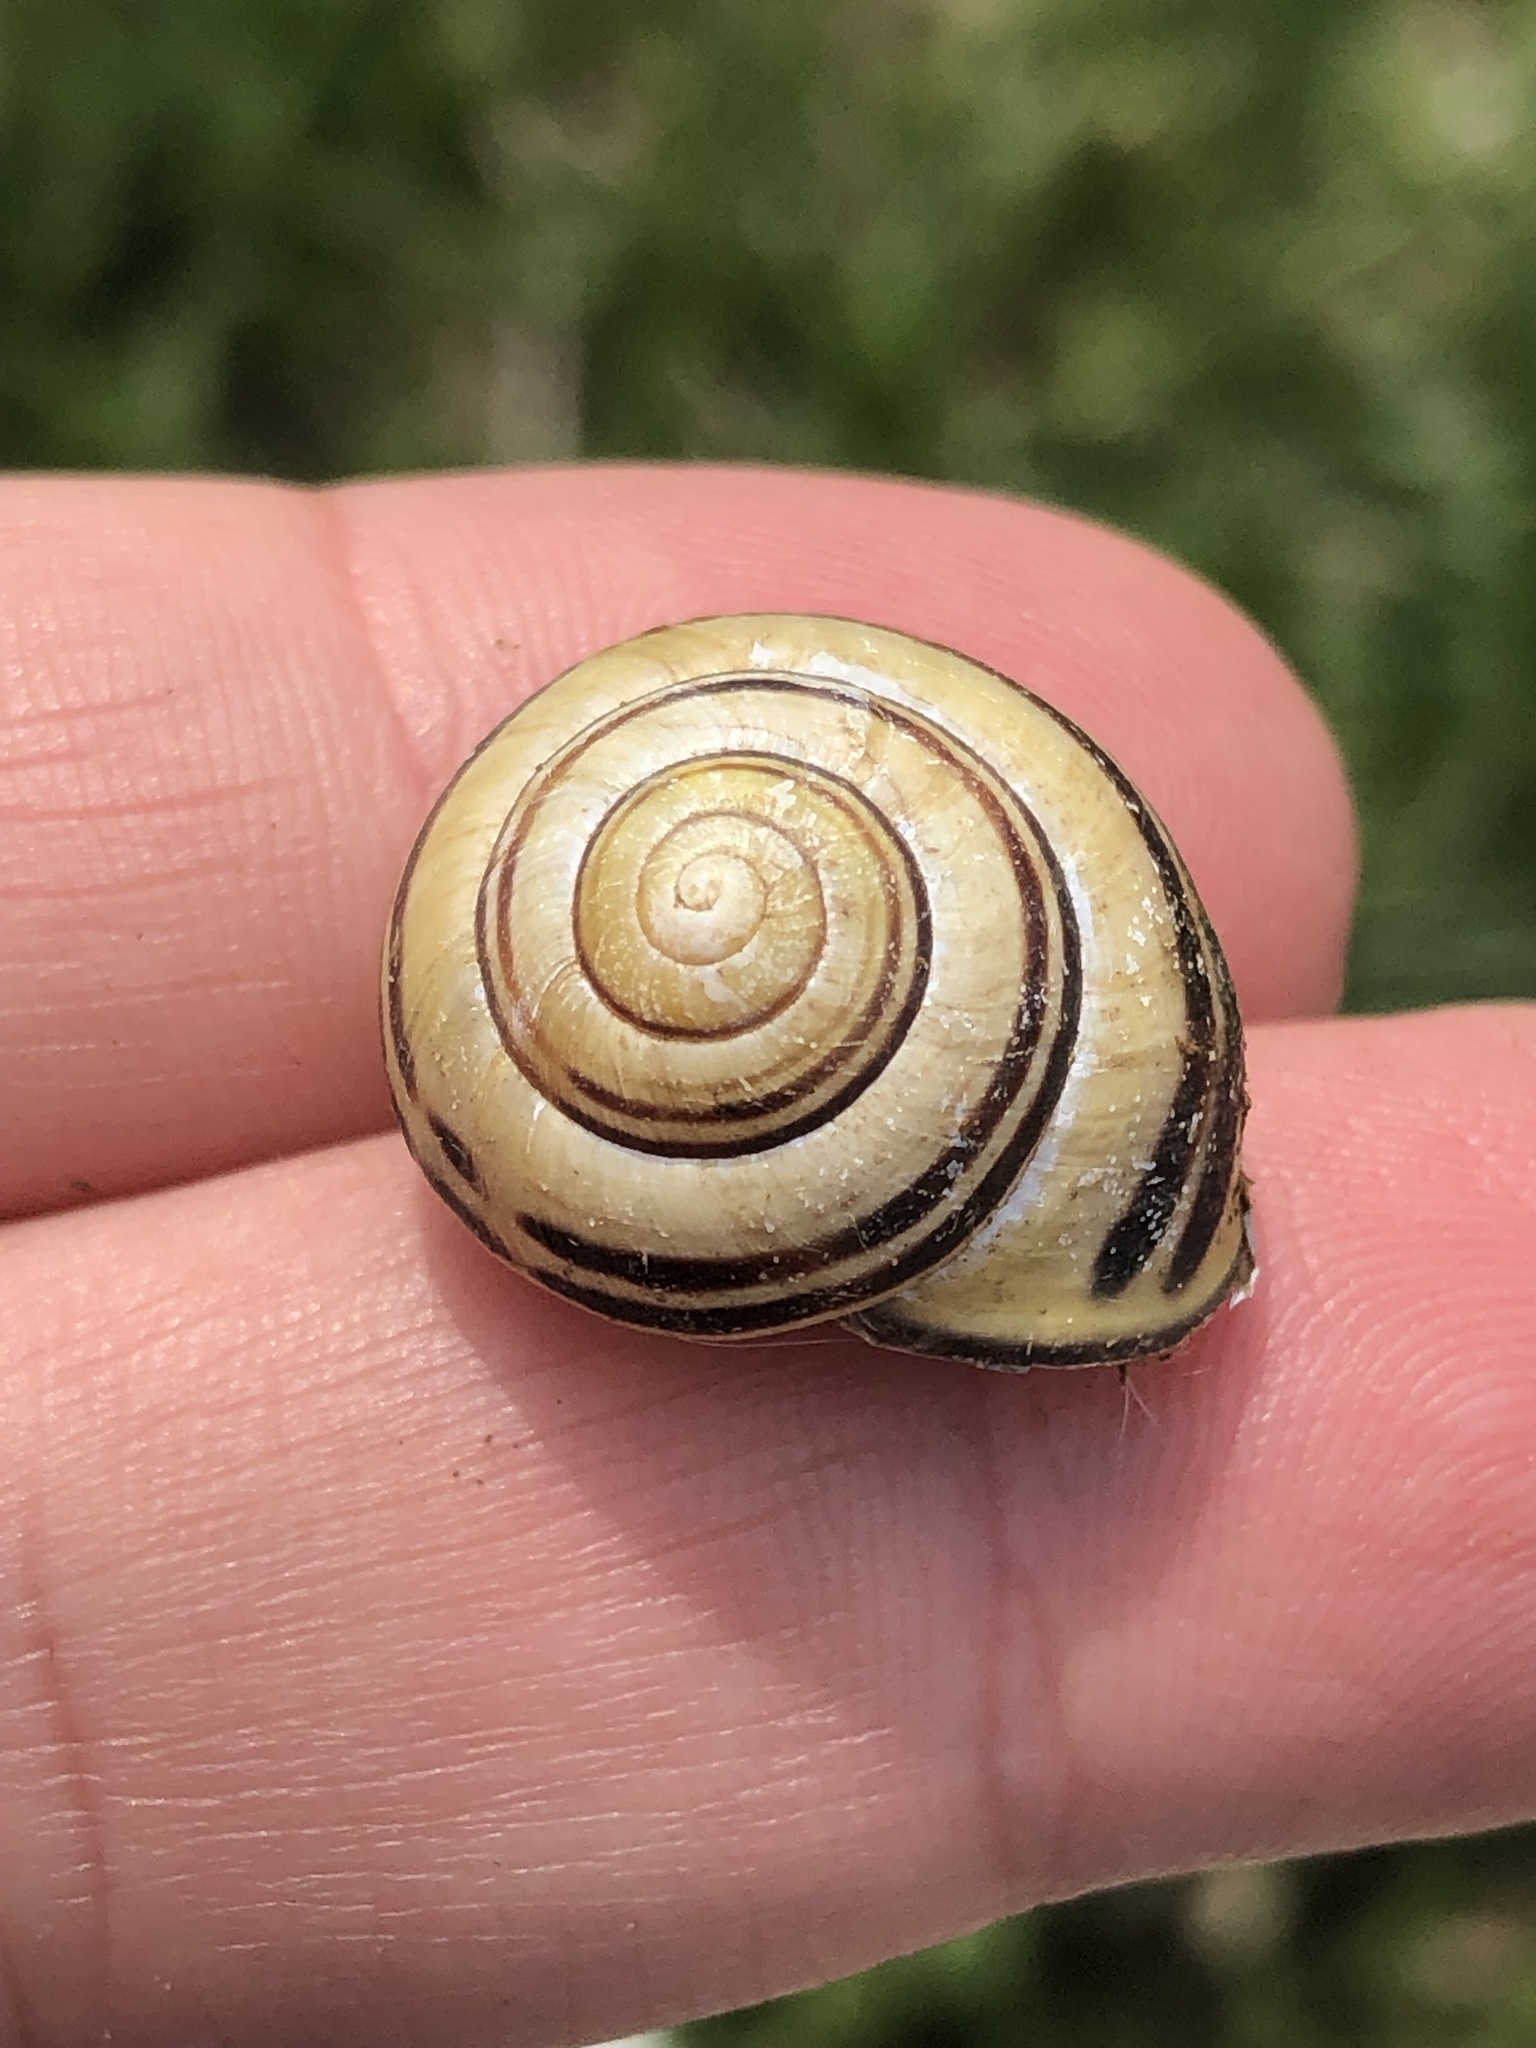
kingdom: Animalia
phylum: Mollusca
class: Gastropoda
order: Stylommatophora
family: Helicidae
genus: Cepaea
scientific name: Cepaea nemoralis
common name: Grovesnail
